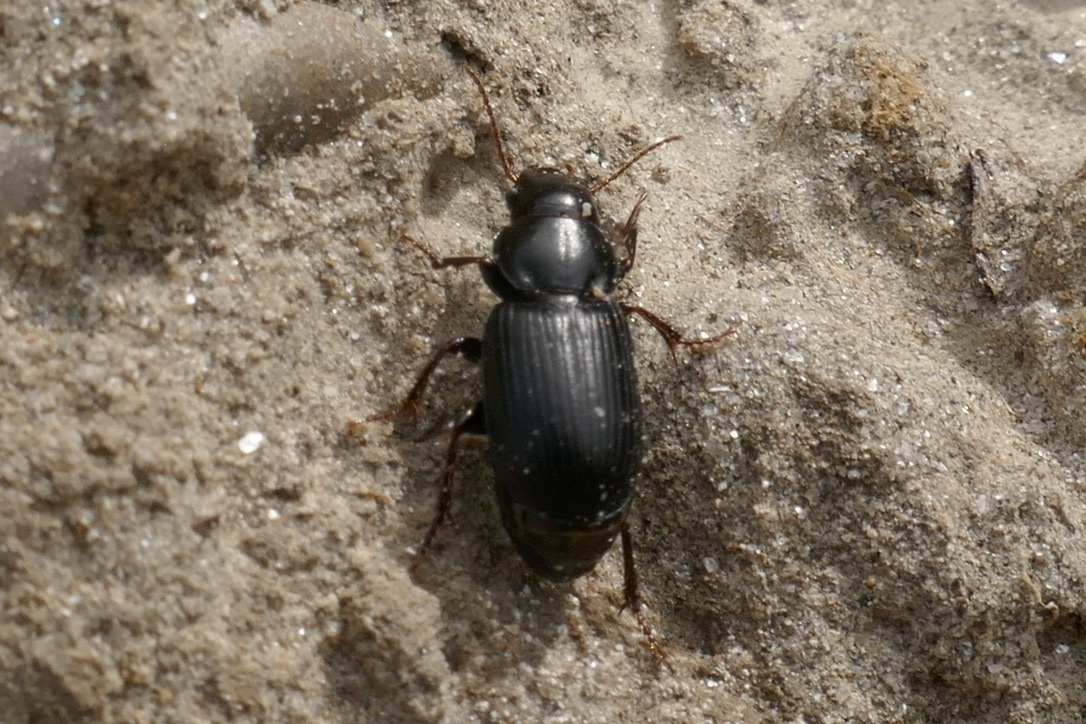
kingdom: Animalia
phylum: Arthropoda
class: Insecta
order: Coleoptera
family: Carabidae
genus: Pangus
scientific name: Pangus scaritides
